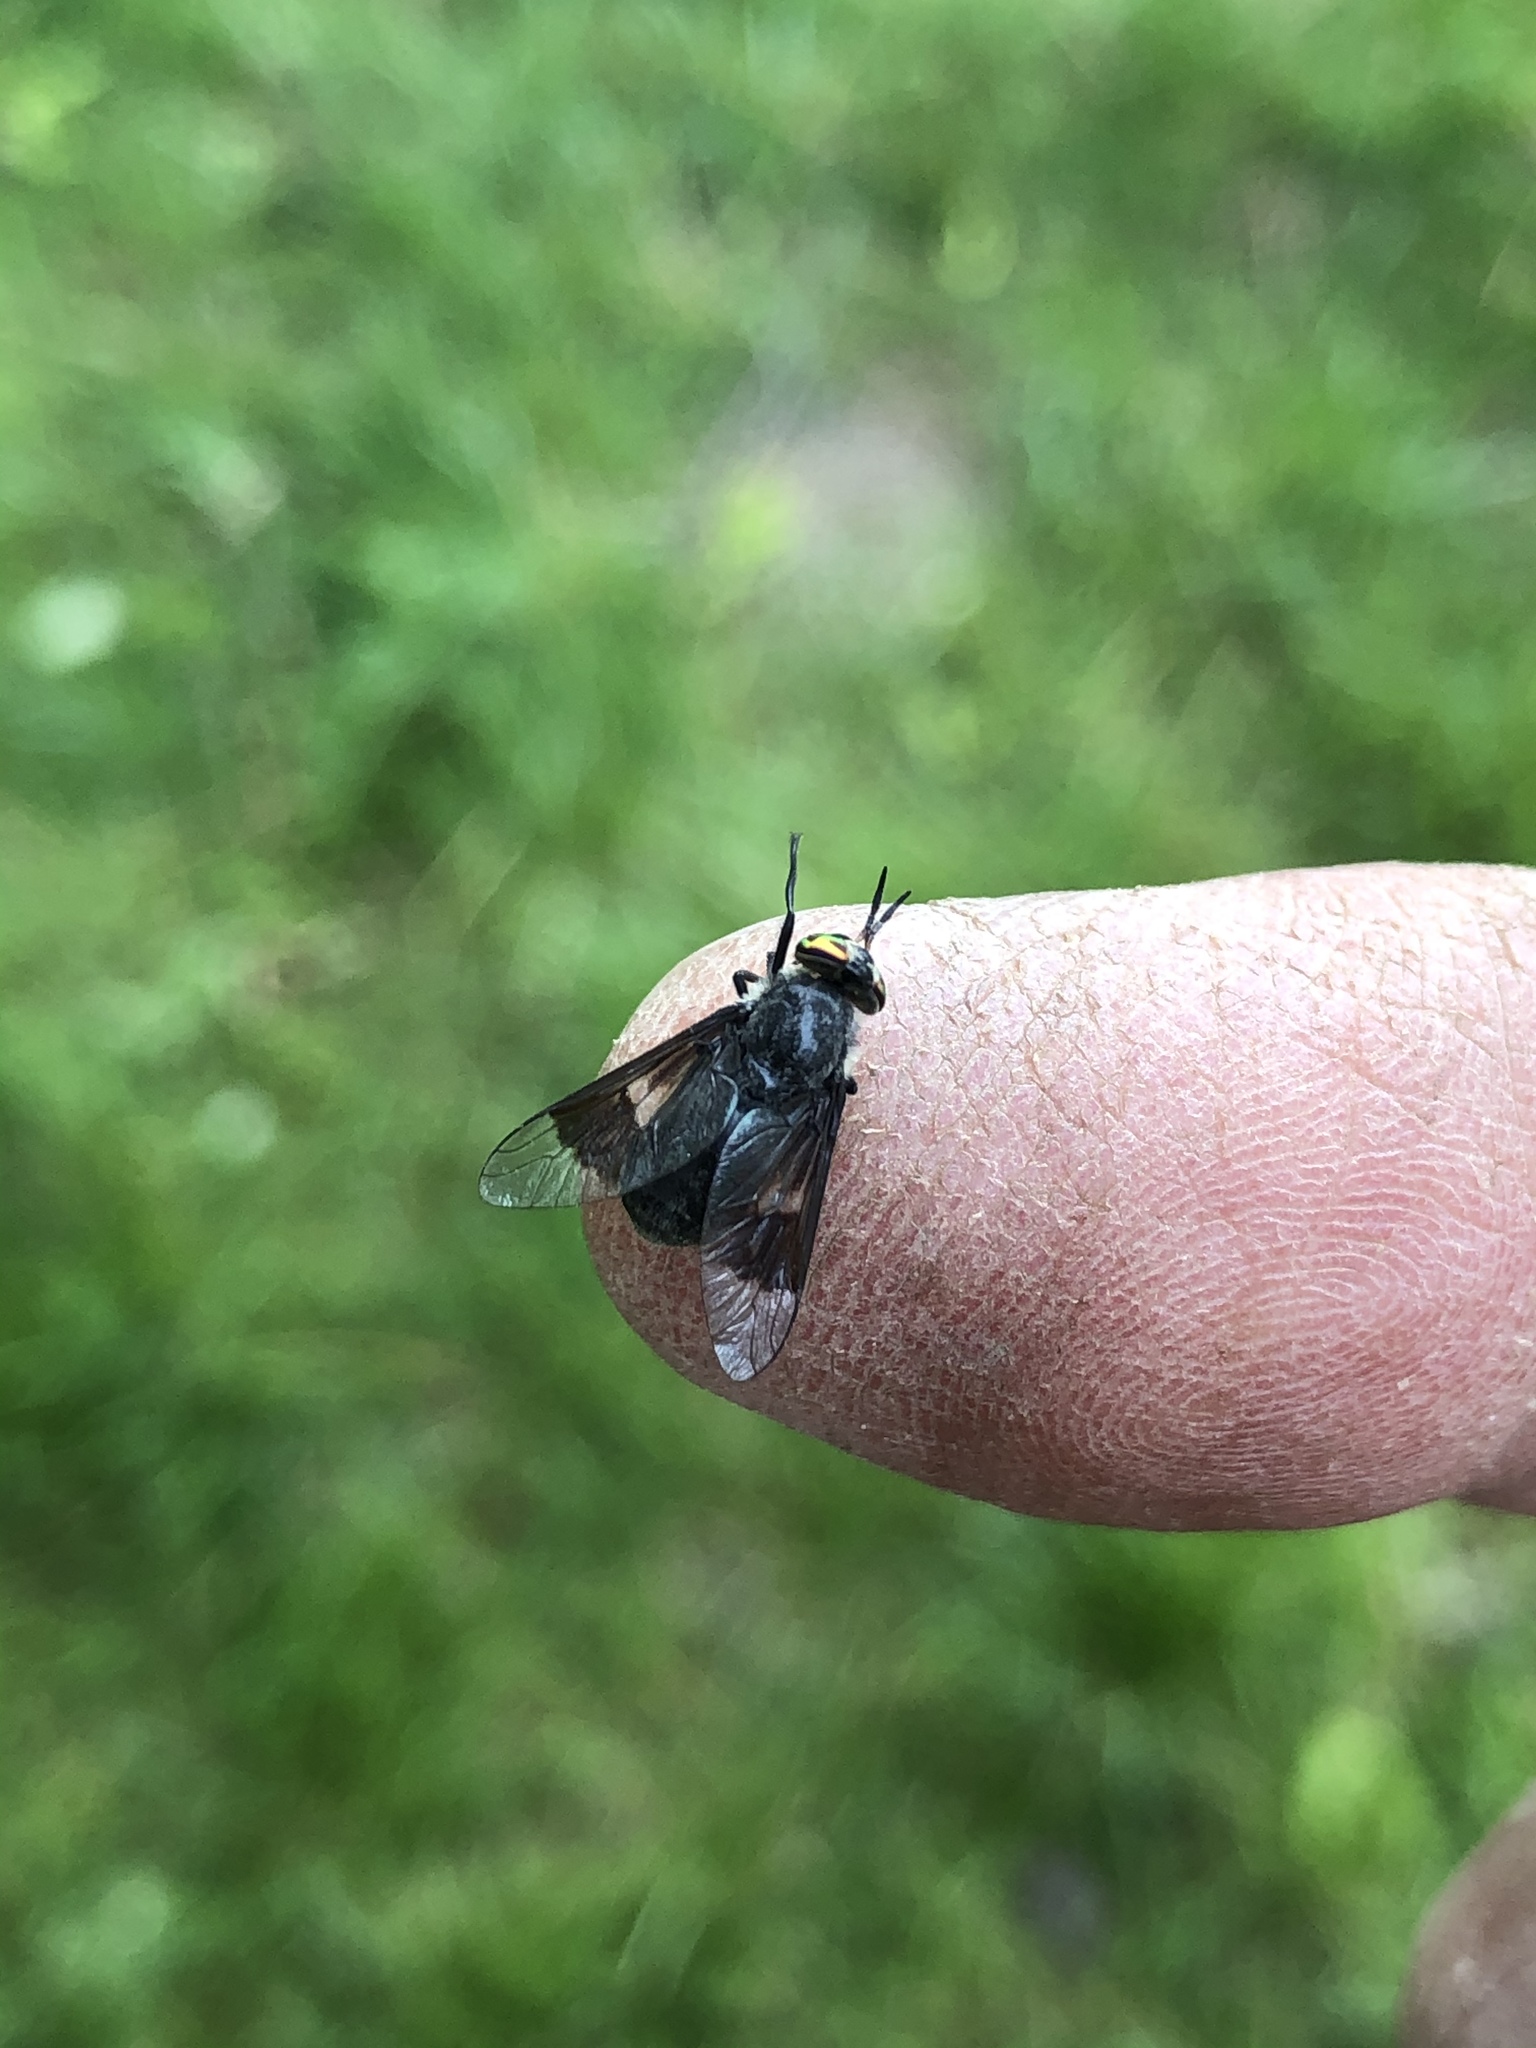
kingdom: Animalia
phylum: Arthropoda
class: Insecta
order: Diptera
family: Tabanidae
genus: Chrysops
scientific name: Chrysops niger
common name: Black deer fly
